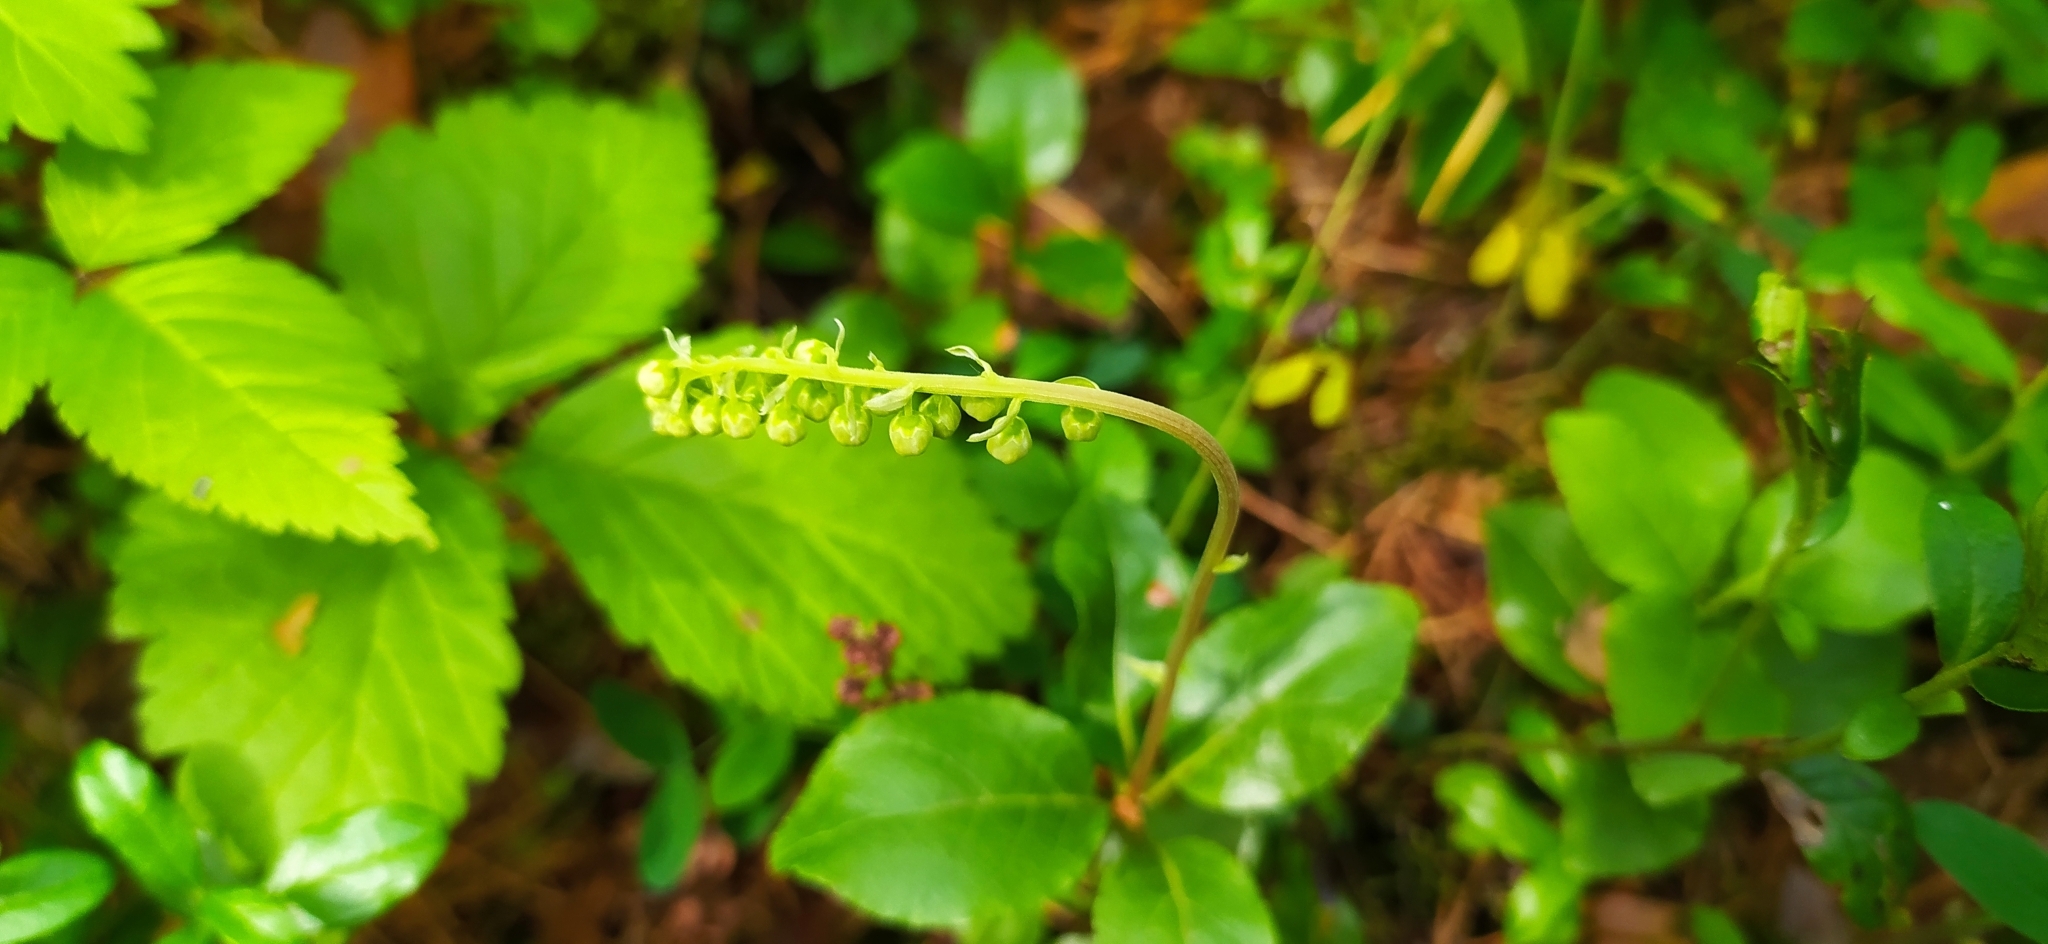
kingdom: Plantae
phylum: Tracheophyta
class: Magnoliopsida
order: Ericales
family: Ericaceae
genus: Orthilia
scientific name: Orthilia secunda
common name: One-sided orthilia
